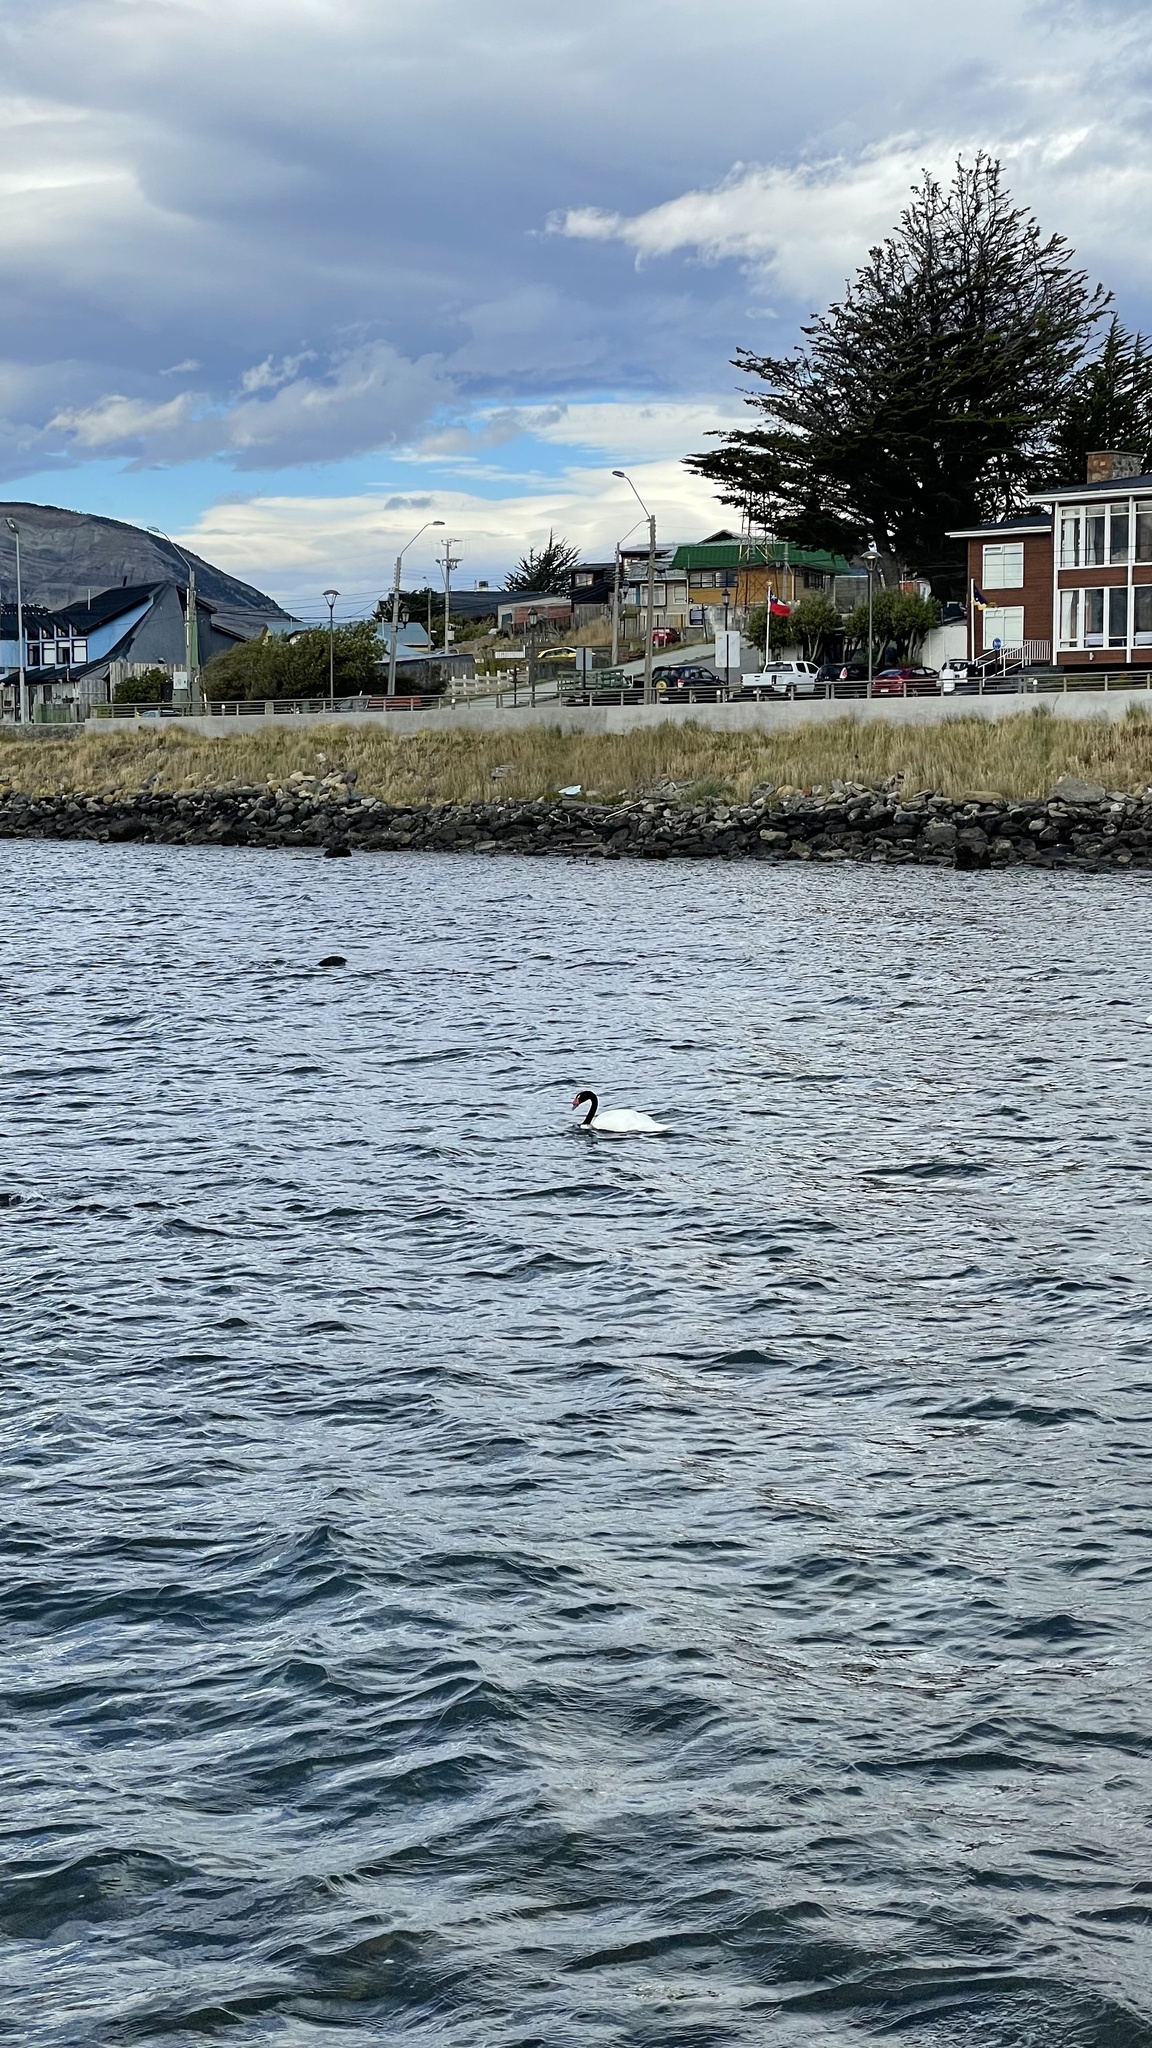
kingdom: Animalia
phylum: Chordata
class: Aves
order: Anseriformes
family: Anatidae
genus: Cygnus
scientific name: Cygnus melancoryphus
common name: Black-necked swan
